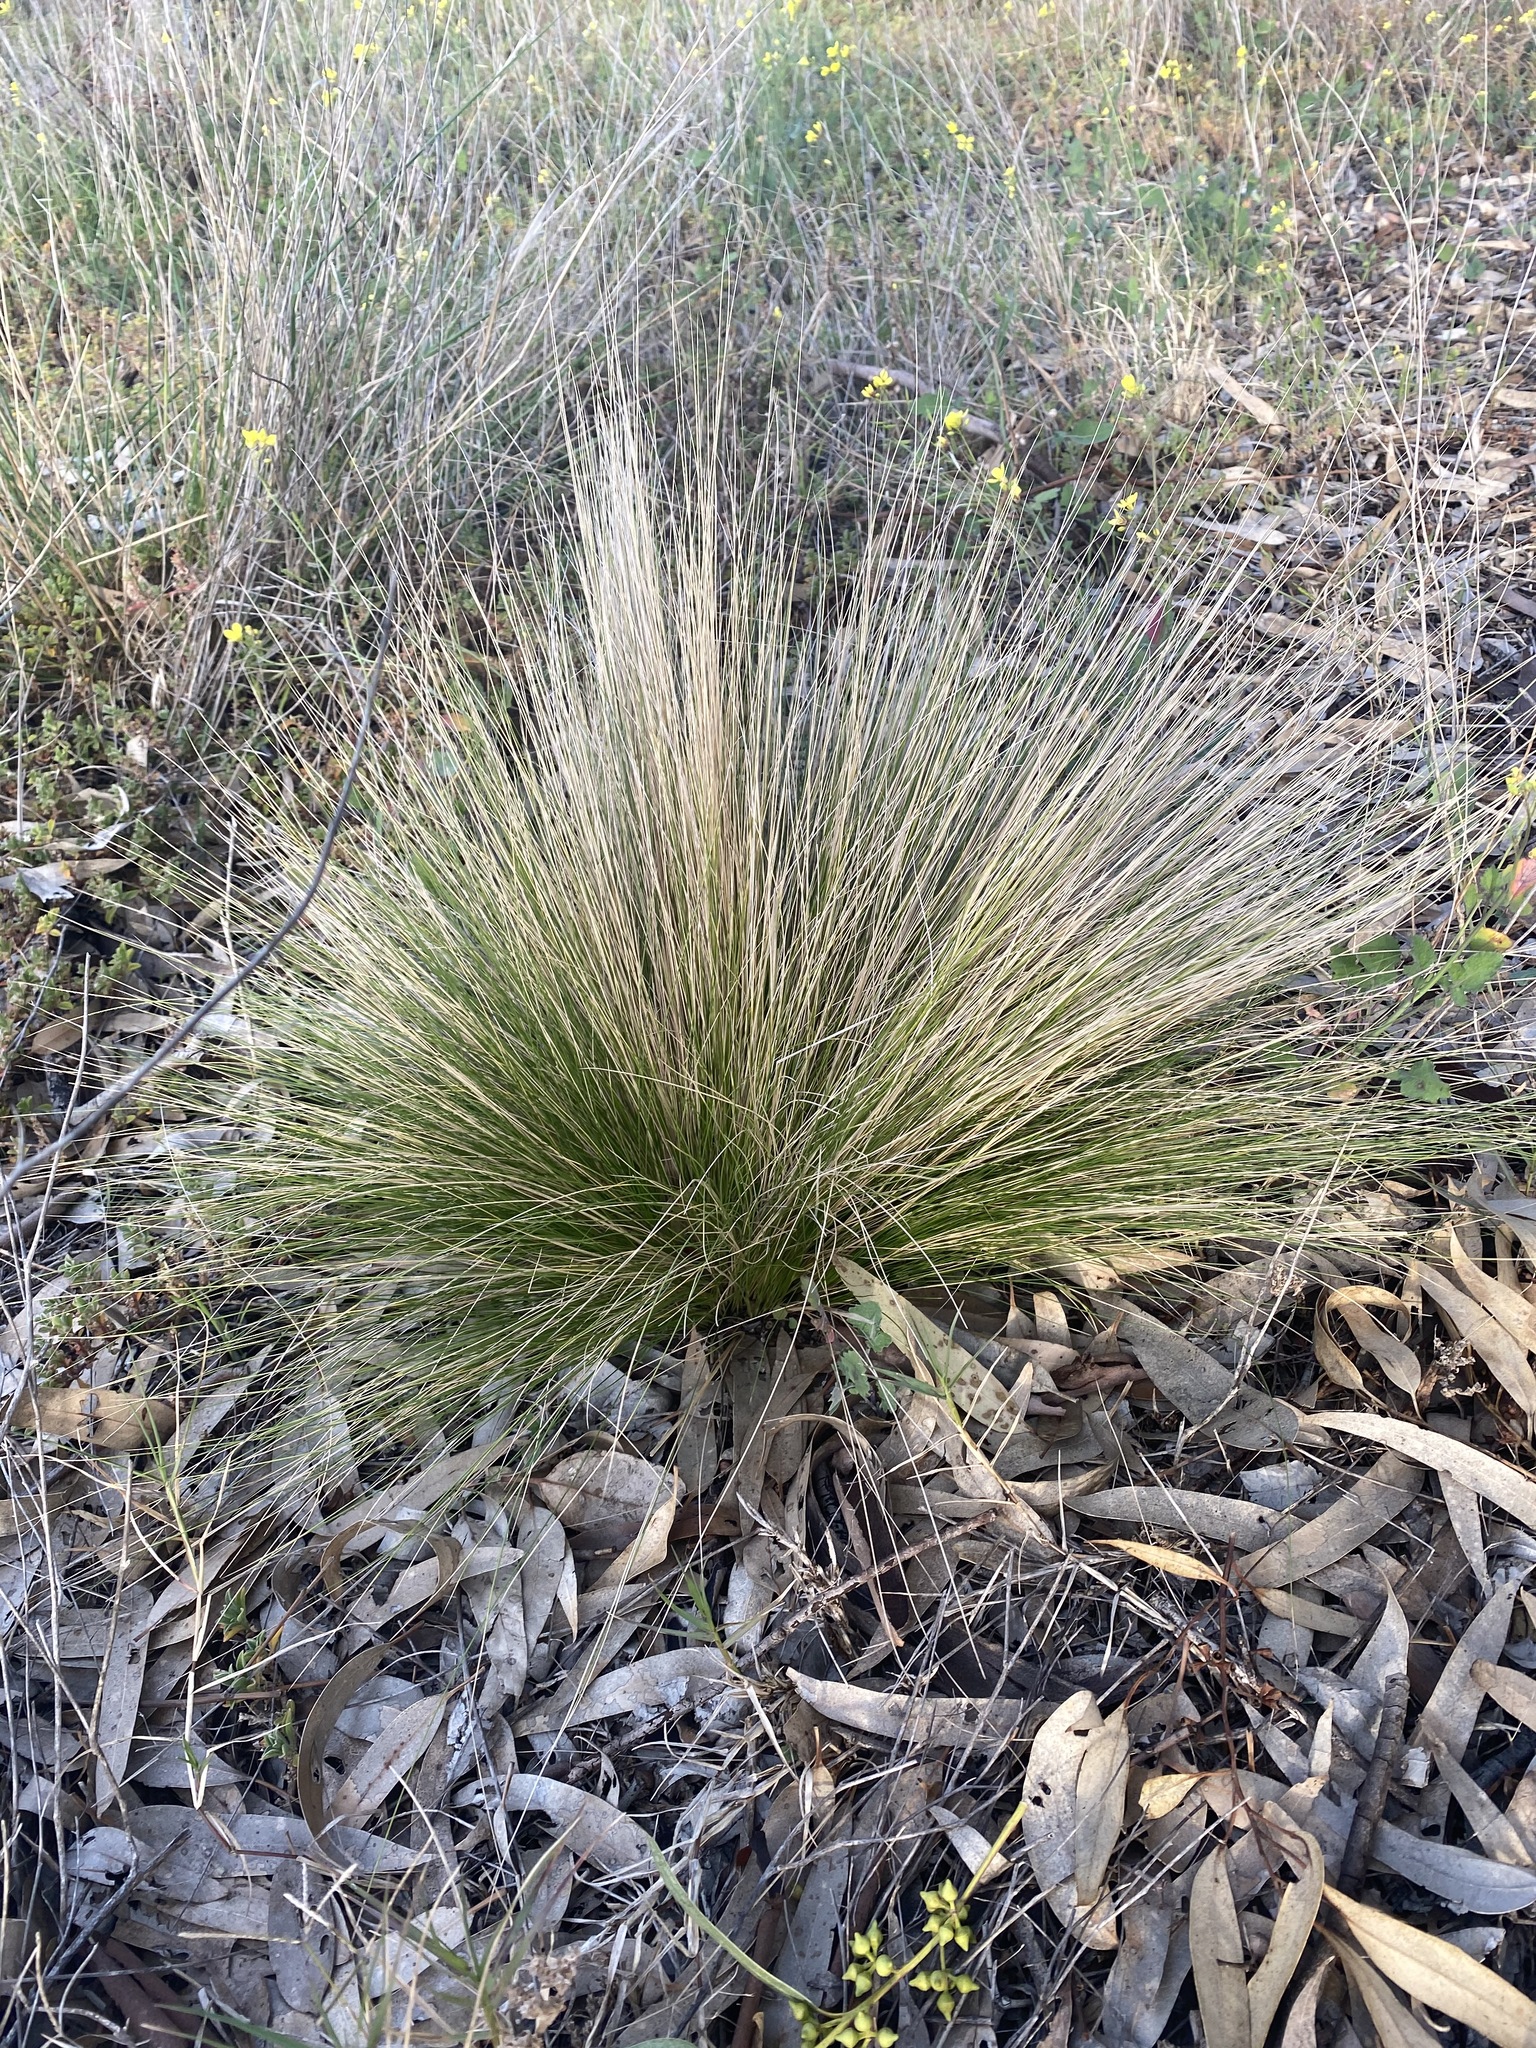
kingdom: Plantae
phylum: Tracheophyta
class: Liliopsida
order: Poales
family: Poaceae
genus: Nassella
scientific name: Nassella trichotoma
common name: Serrated tussock grass
